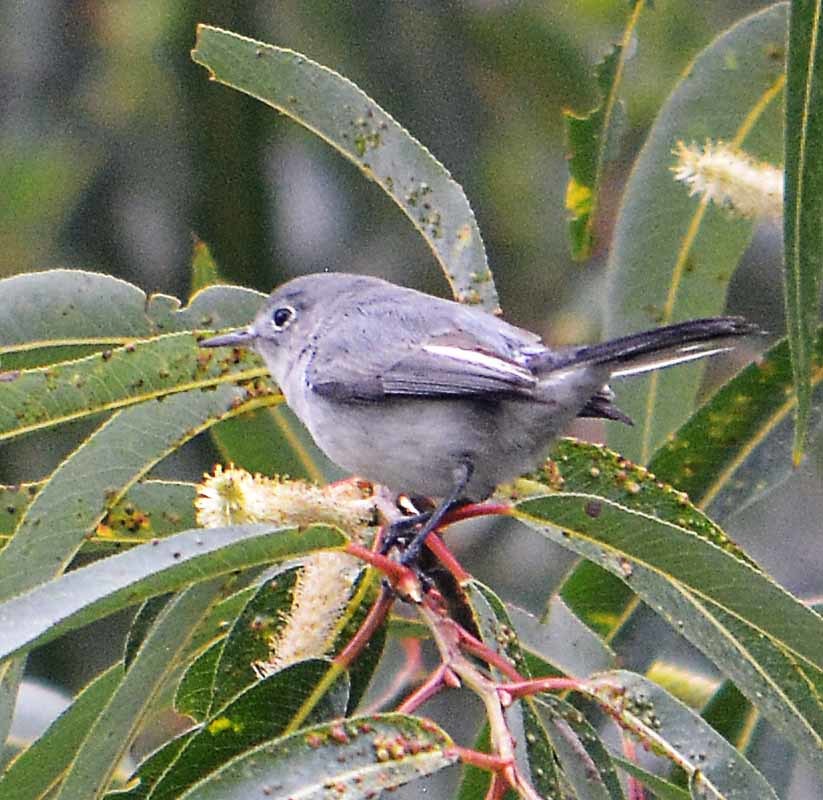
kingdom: Animalia
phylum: Chordata
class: Aves
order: Passeriformes
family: Polioptilidae
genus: Polioptila
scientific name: Polioptila caerulea
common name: Blue-gray gnatcatcher
